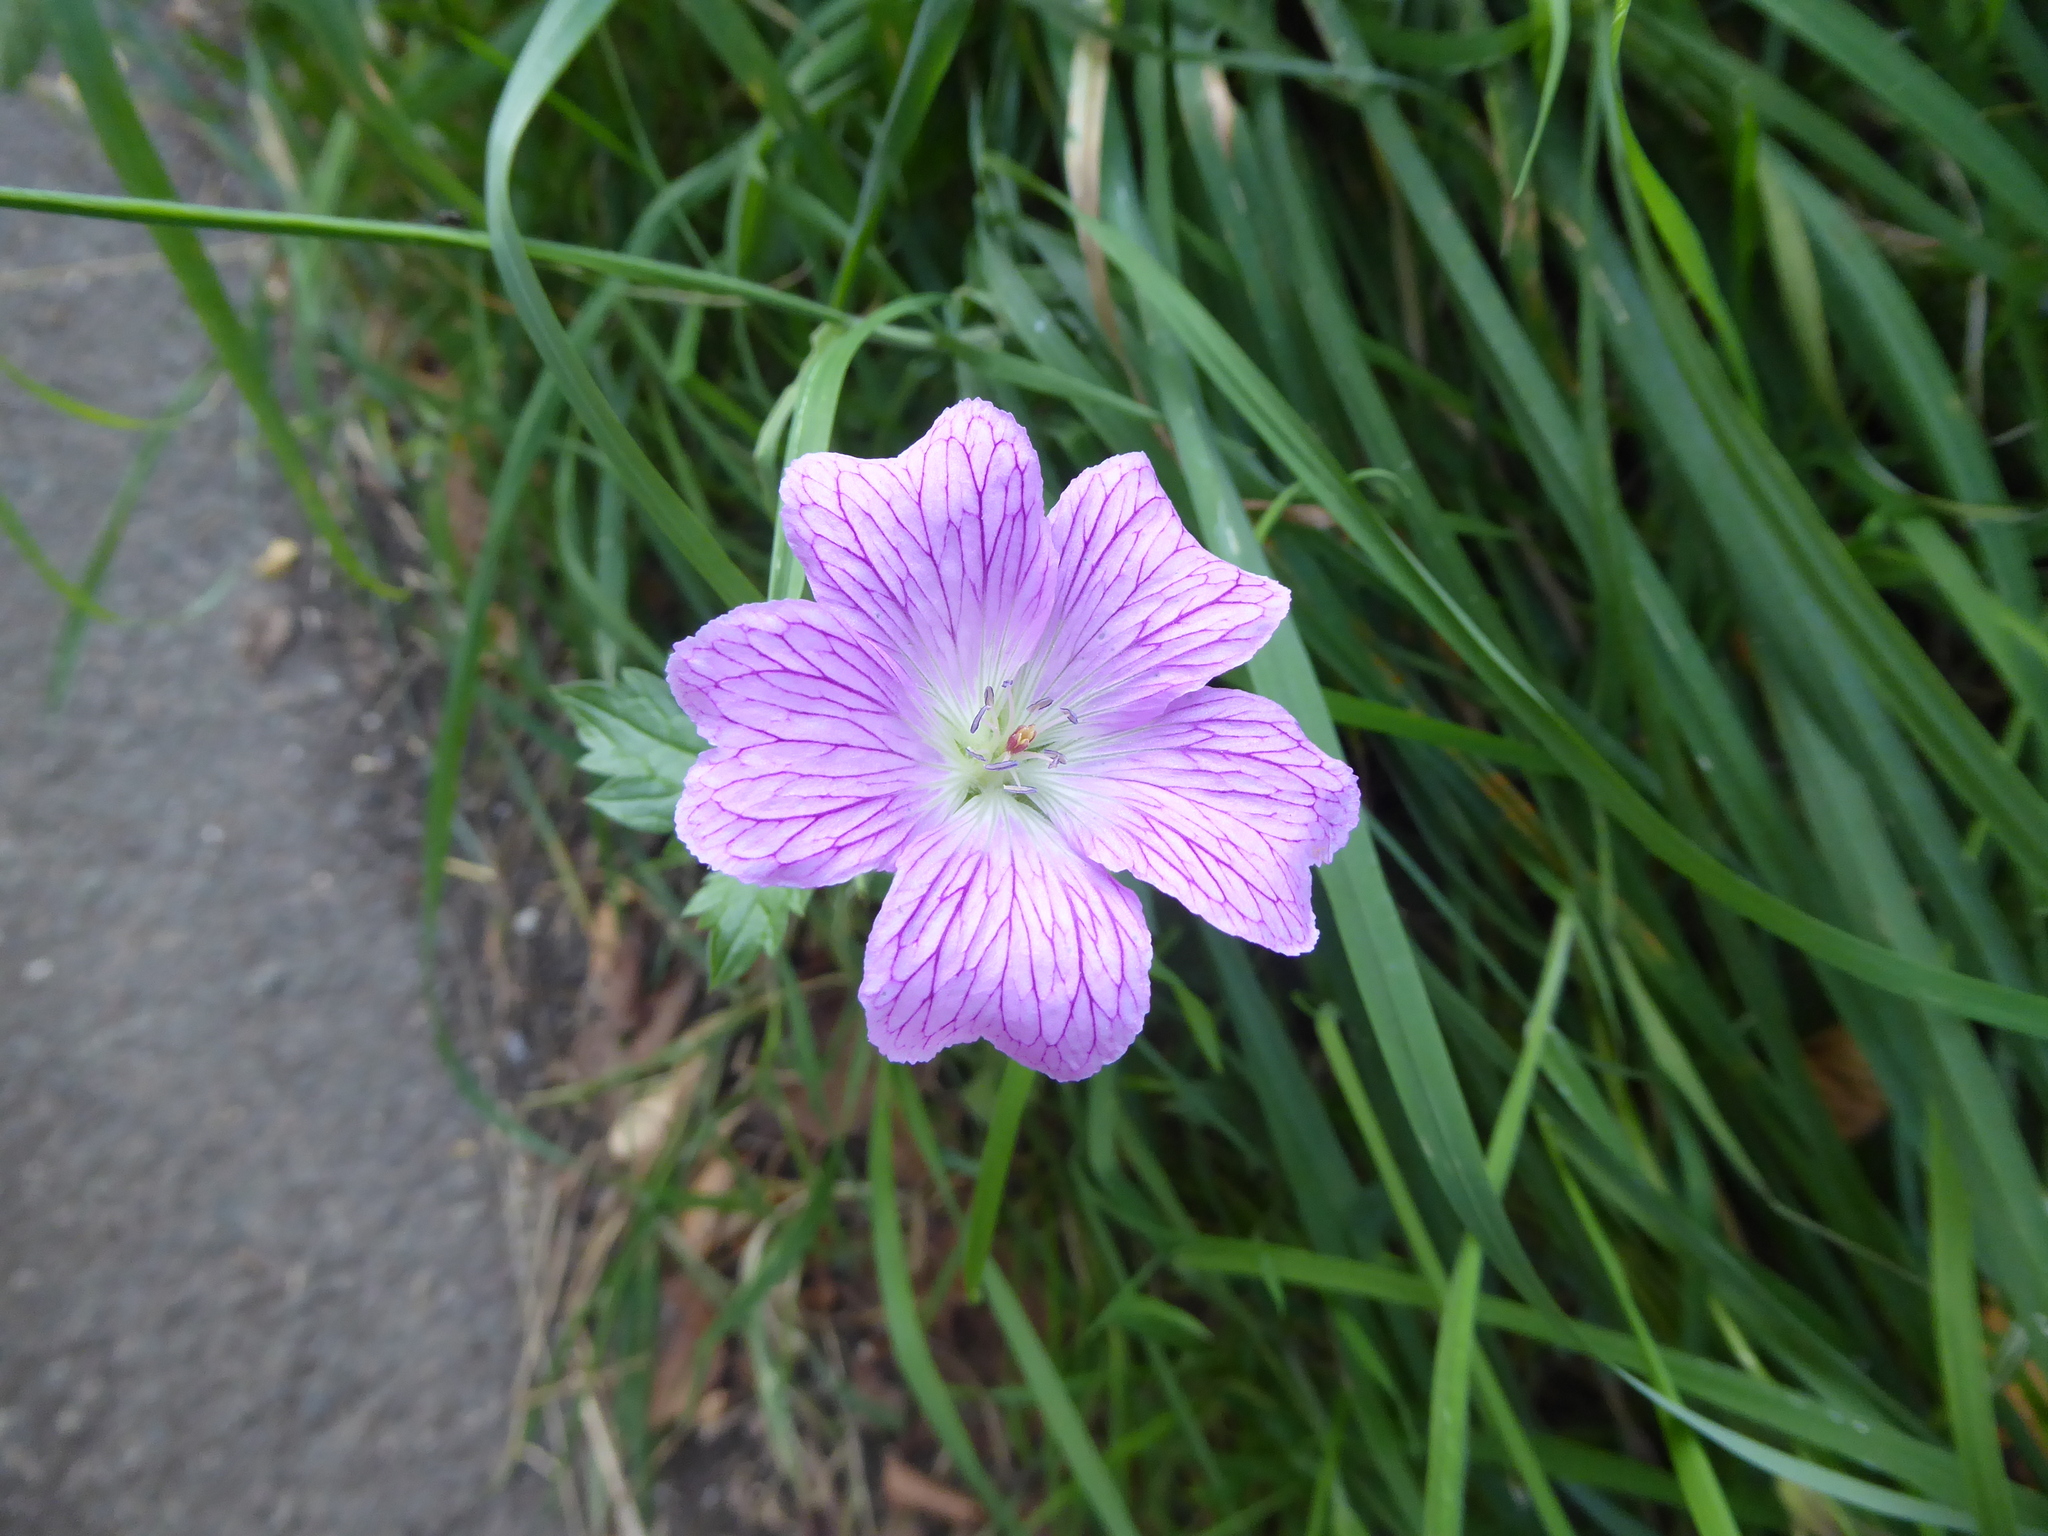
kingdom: Plantae
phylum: Tracheophyta
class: Magnoliopsida
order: Geraniales
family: Geraniaceae
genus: Geranium
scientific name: Geranium oxonianum
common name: Druce's crane's-bill
